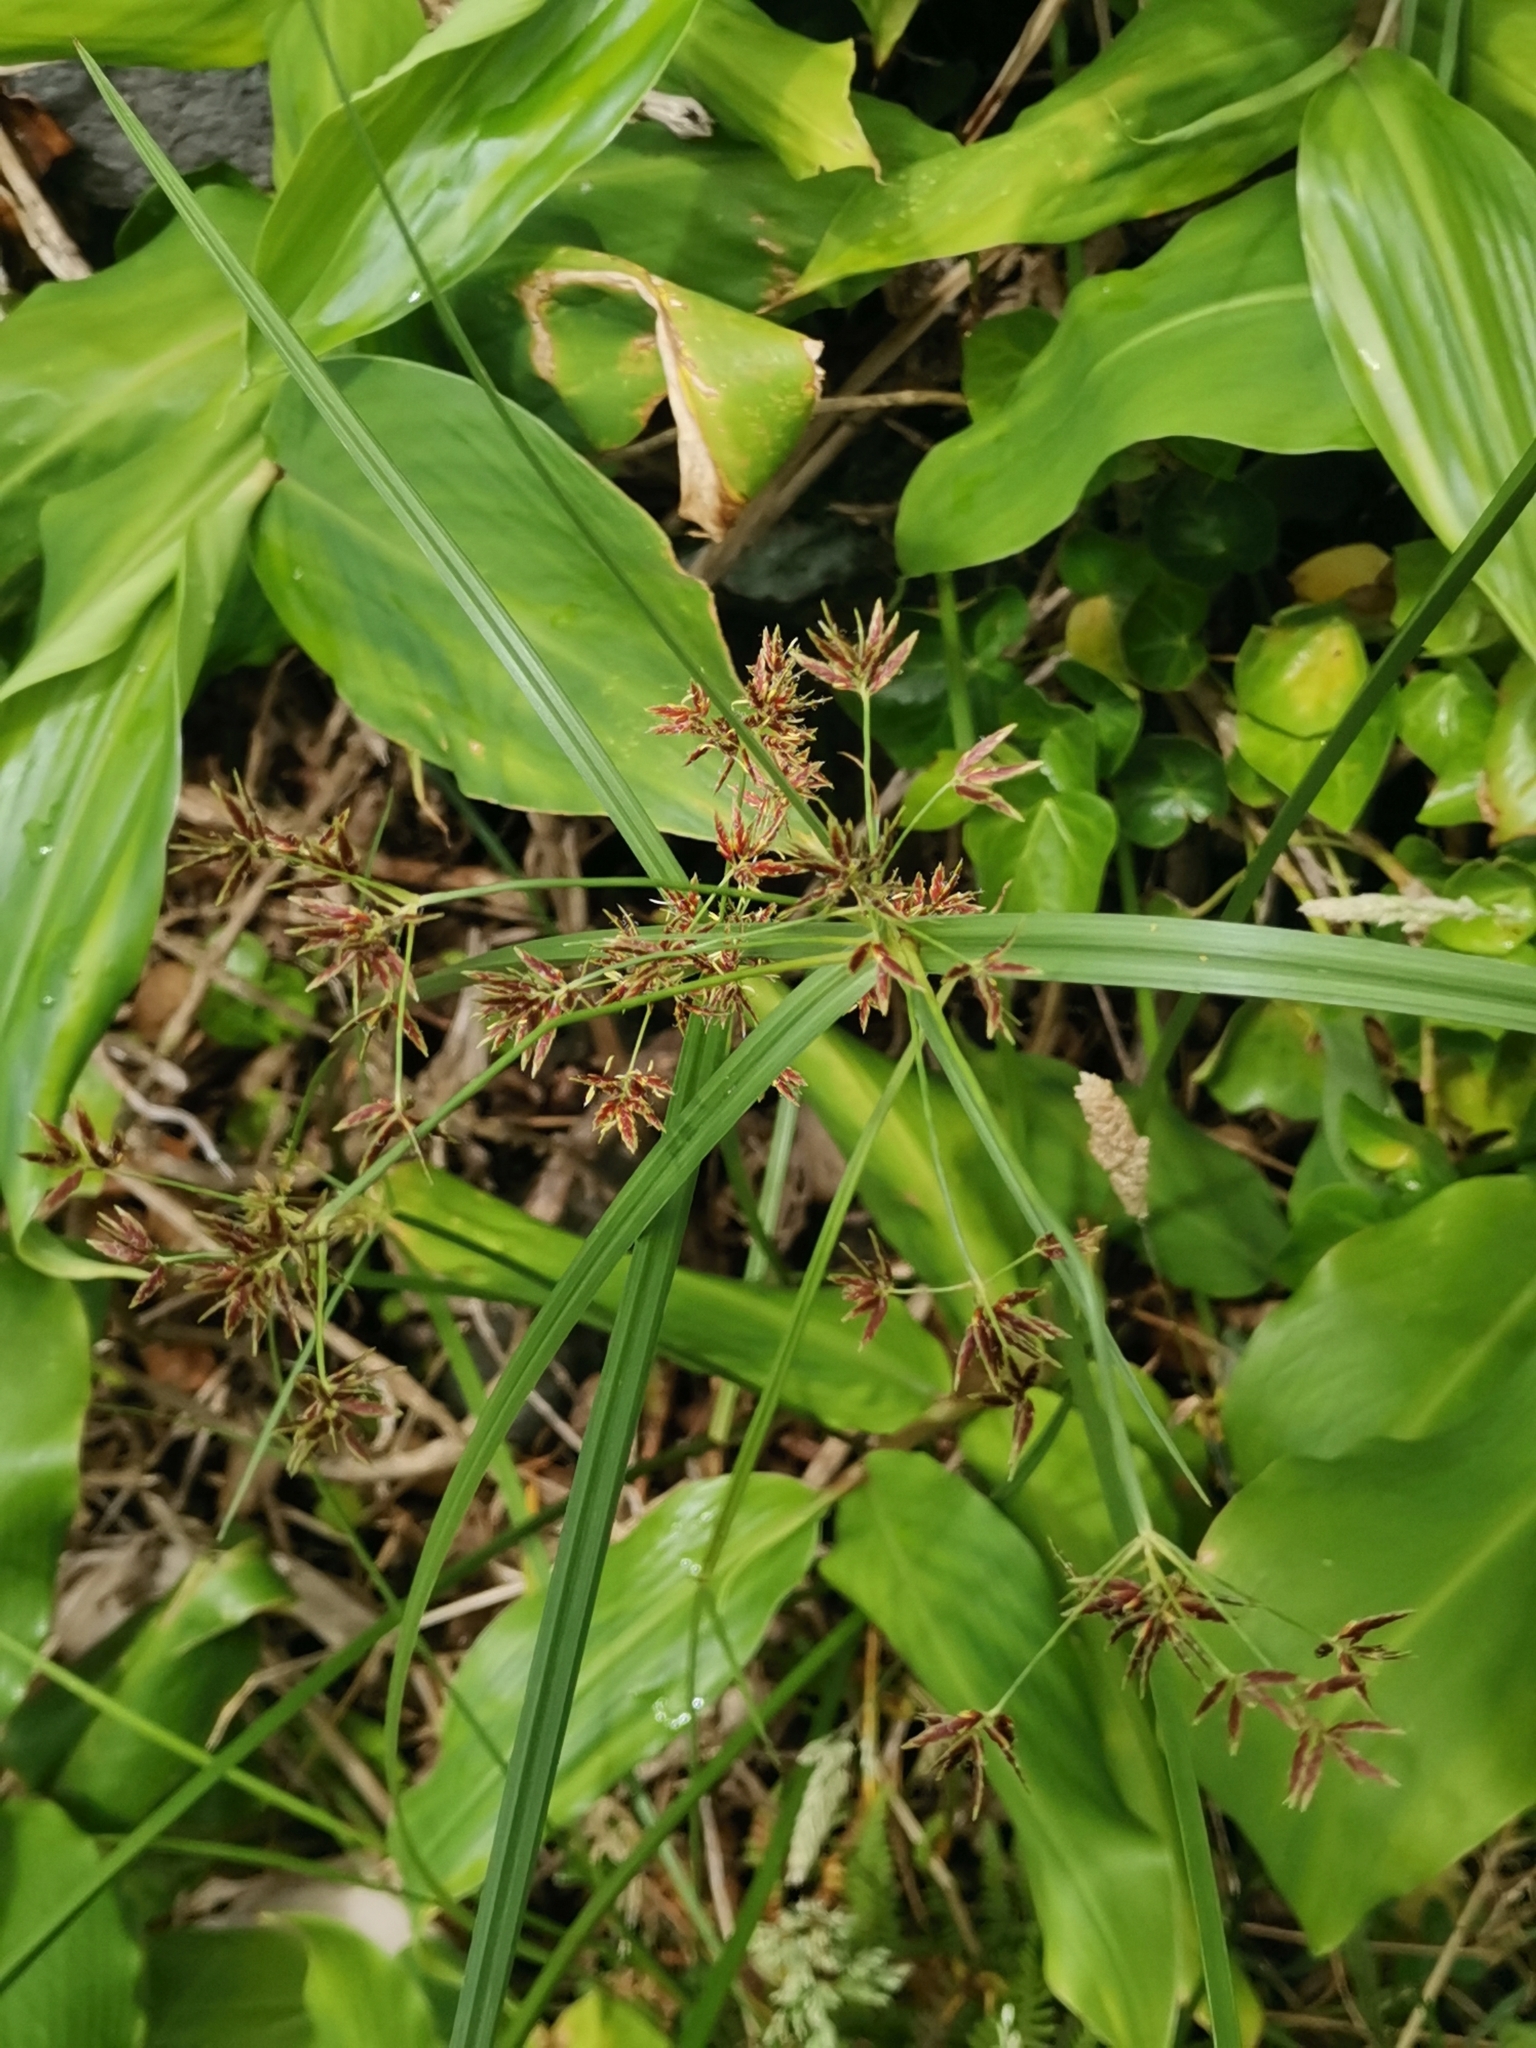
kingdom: Plantae
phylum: Tracheophyta
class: Liliopsida
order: Poales
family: Cyperaceae
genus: Cyperus
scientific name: Cyperus longus
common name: Galingale
